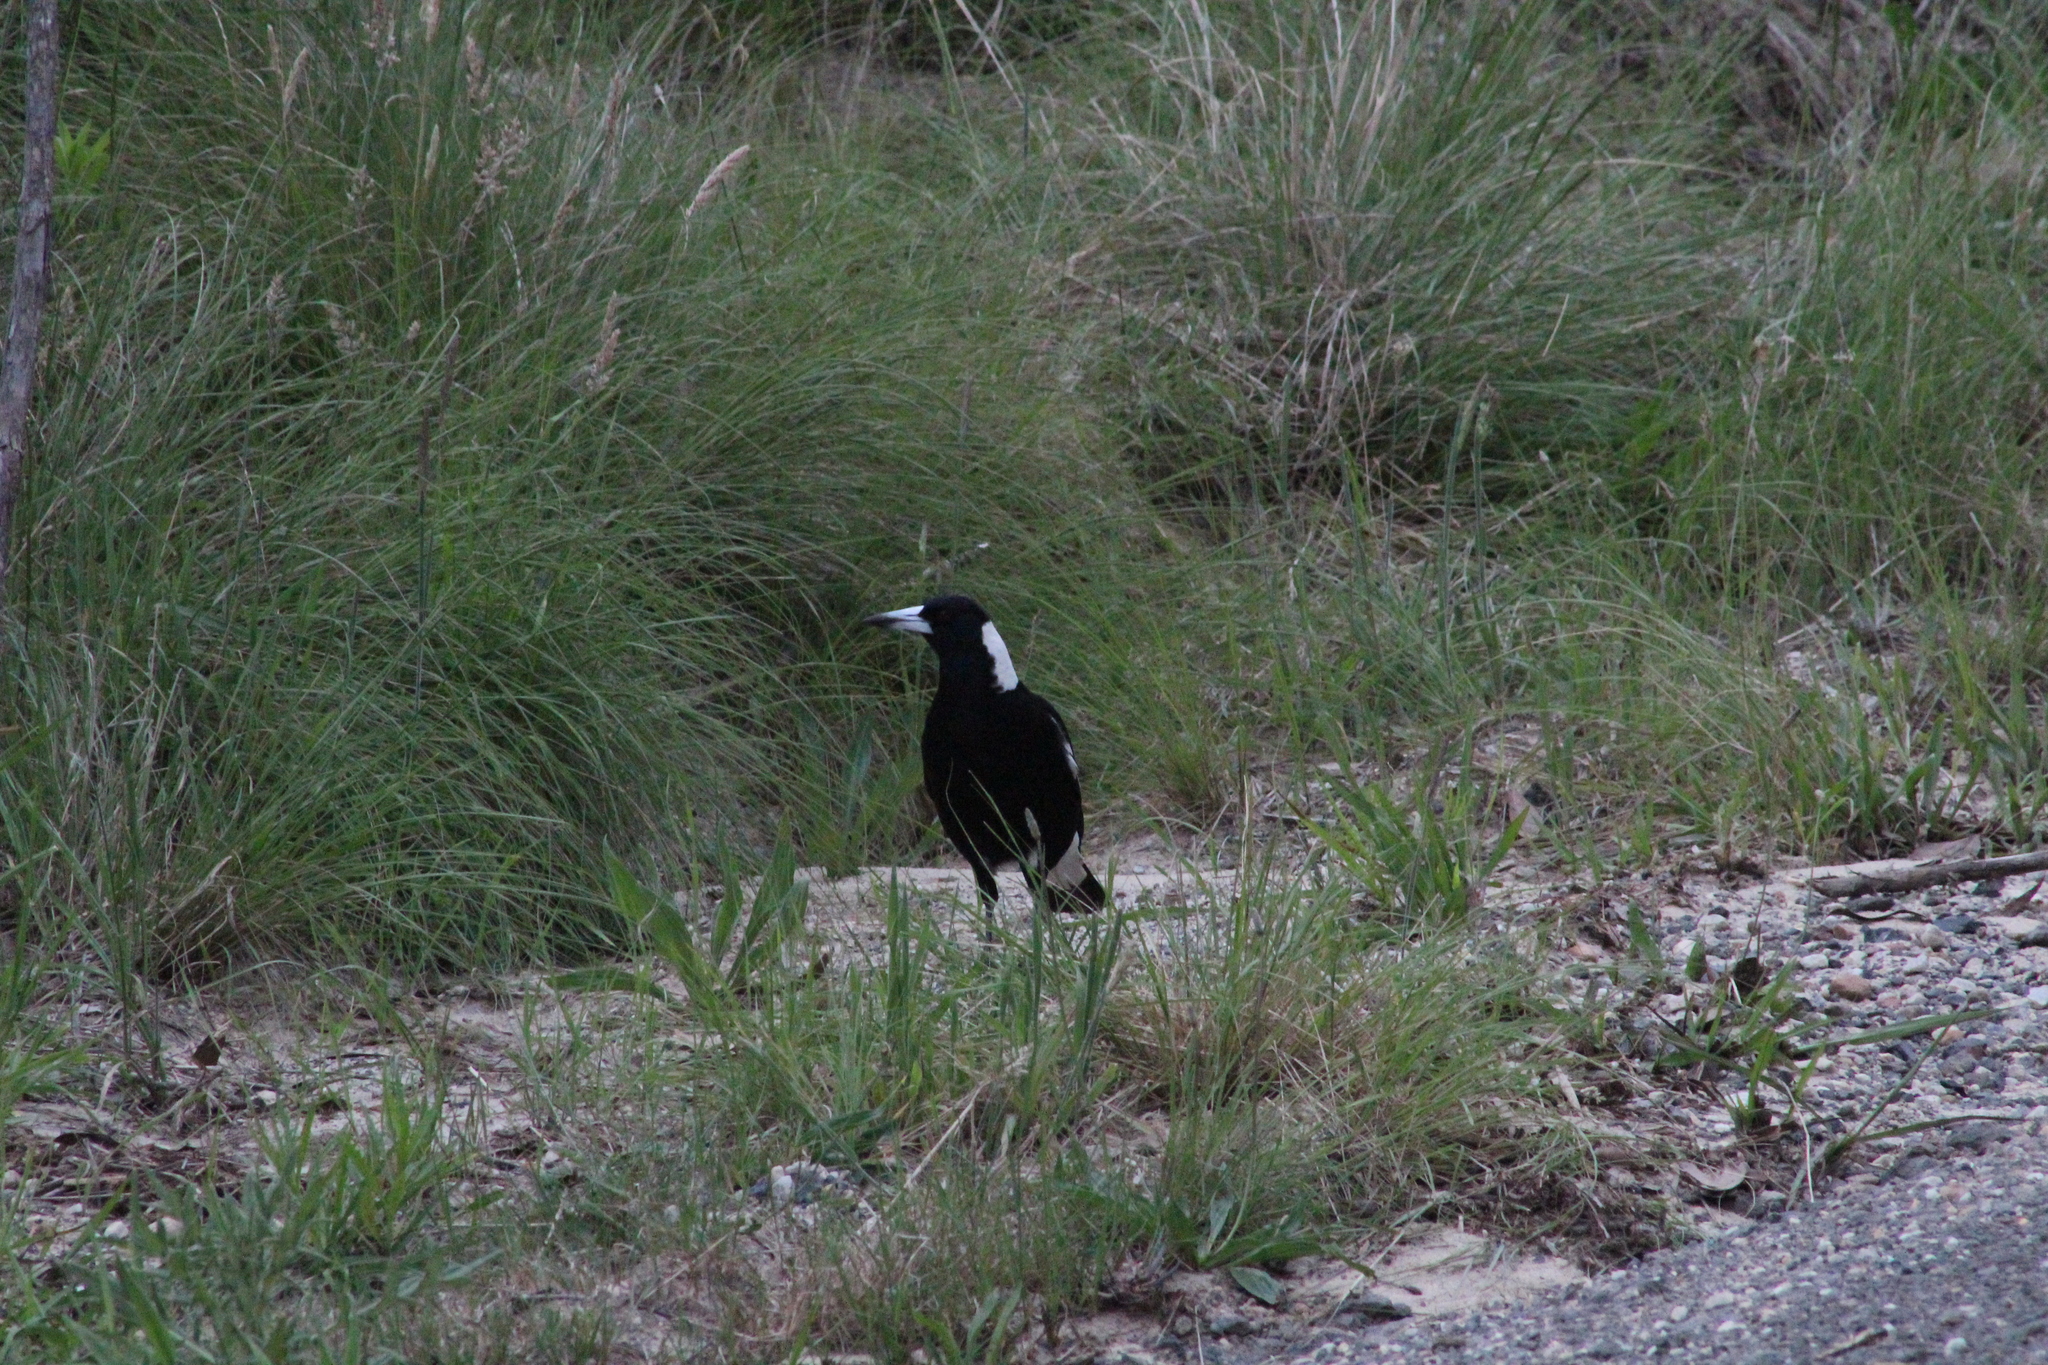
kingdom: Animalia
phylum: Chordata
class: Aves
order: Passeriformes
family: Cracticidae
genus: Gymnorhina
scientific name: Gymnorhina tibicen
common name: Australian magpie
